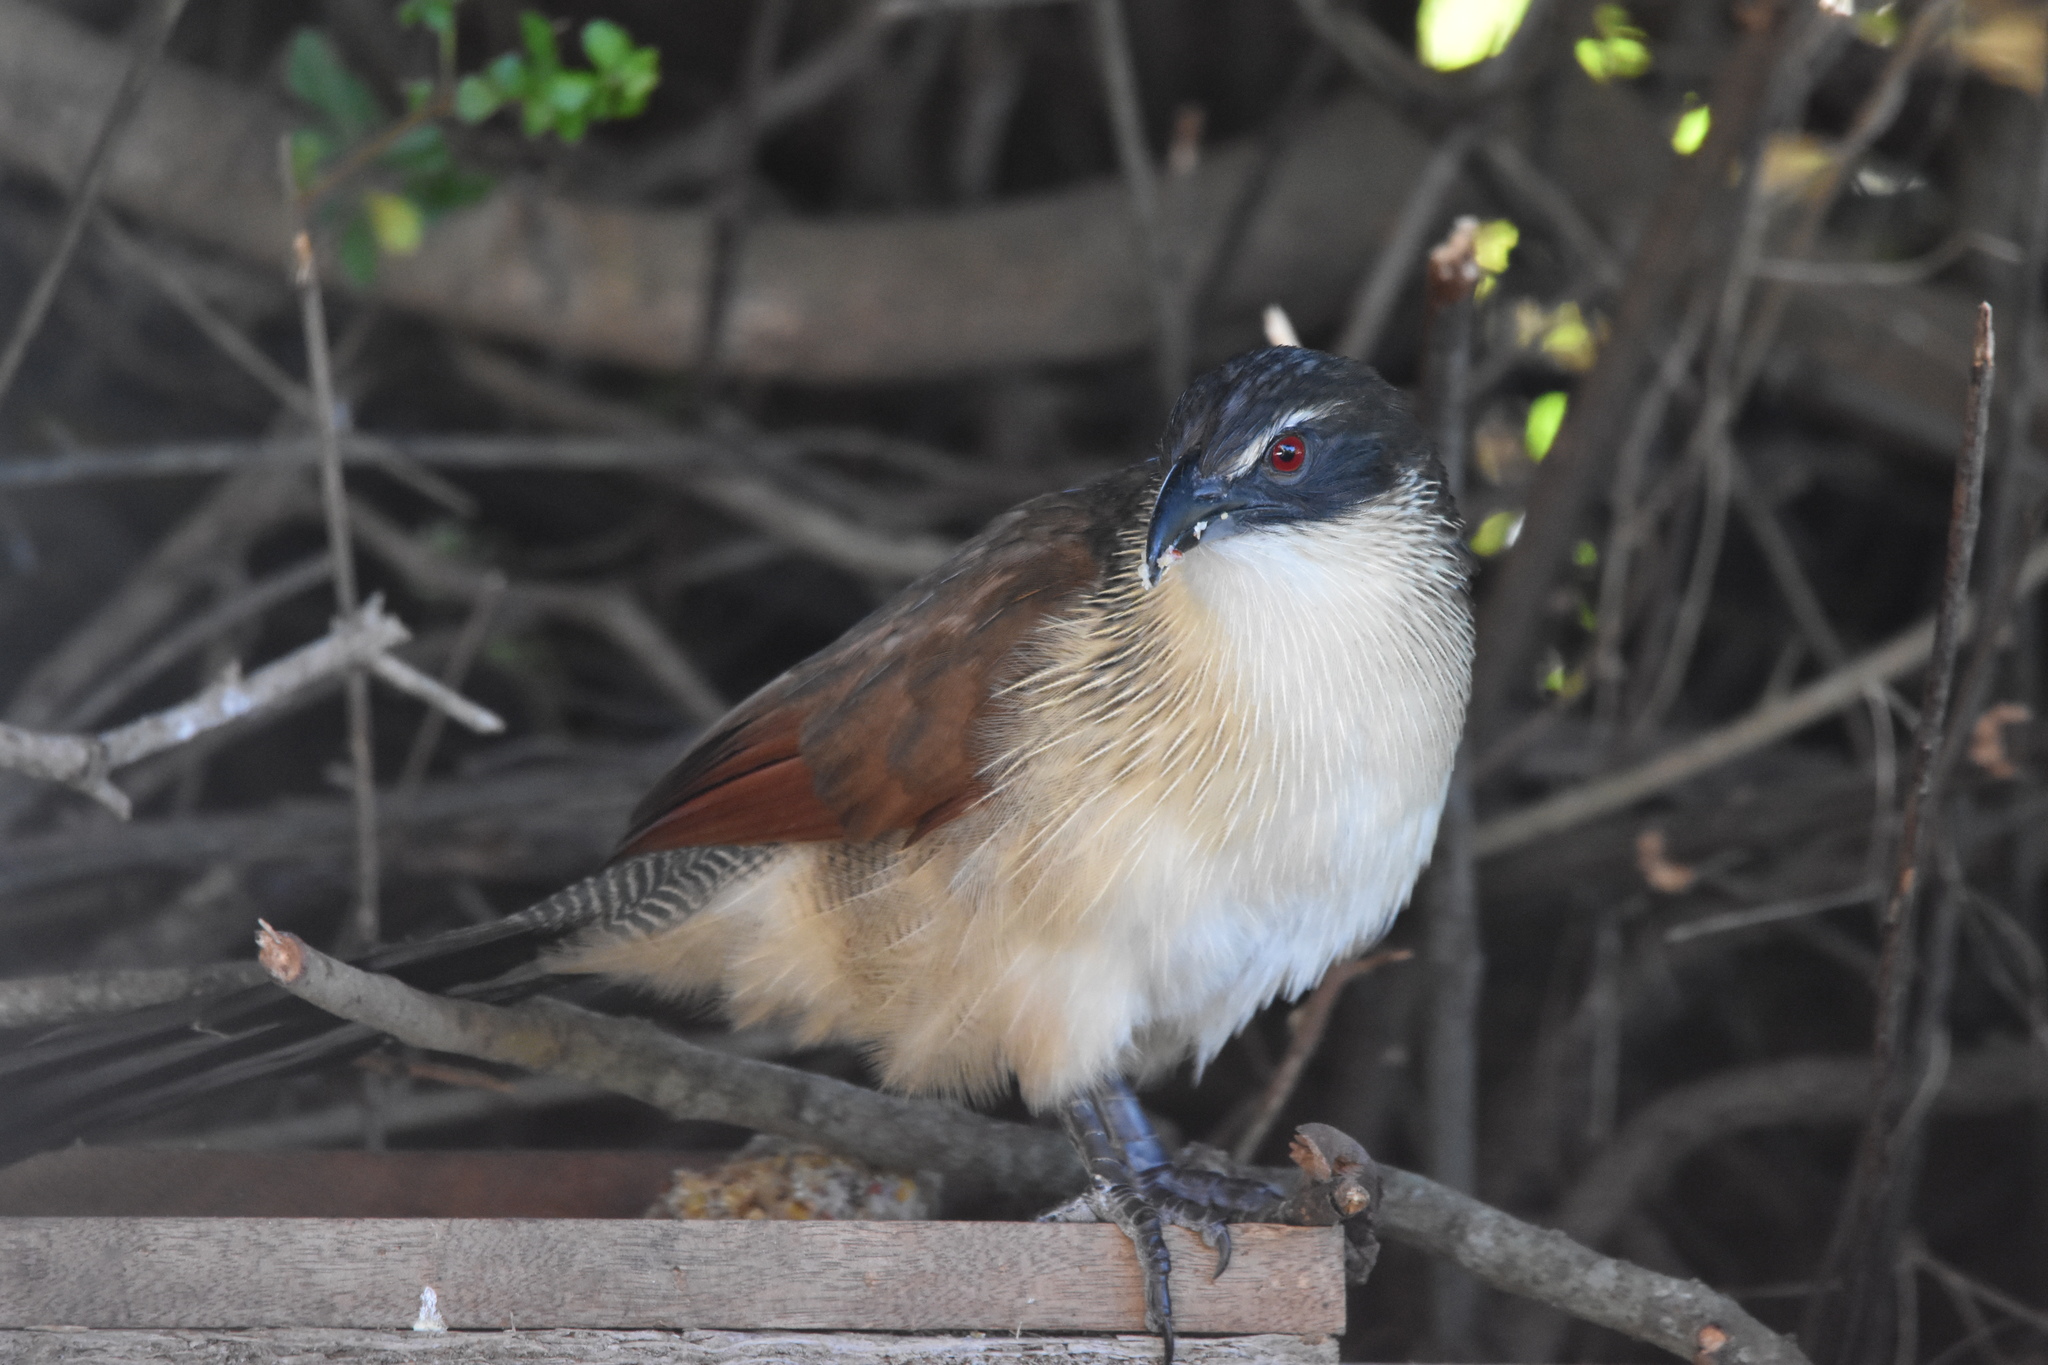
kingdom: Animalia
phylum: Chordata
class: Aves
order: Cuculiformes
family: Cuculidae
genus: Centropus
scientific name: Centropus superciliosus
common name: White-browed coucal
